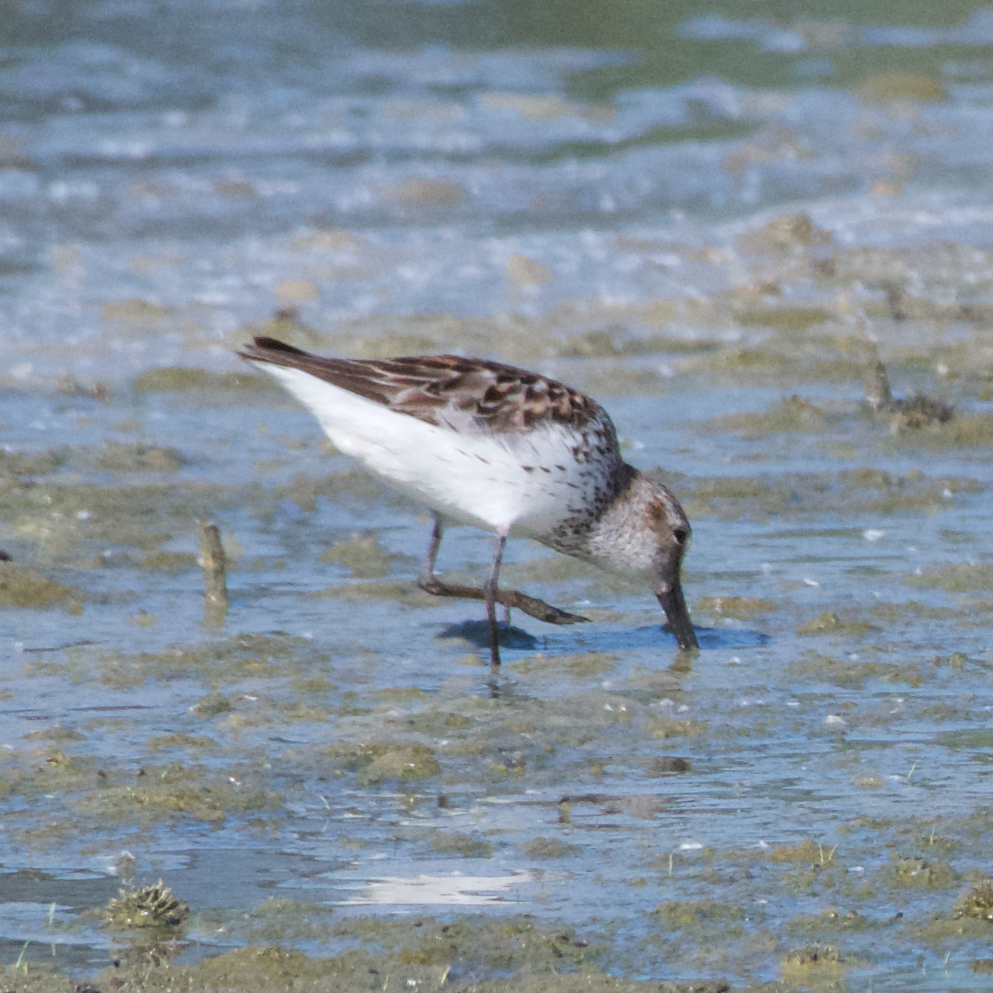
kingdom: Animalia
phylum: Chordata
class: Aves
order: Charadriiformes
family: Scolopacidae
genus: Calidris
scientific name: Calidris mauri
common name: Western sandpiper
